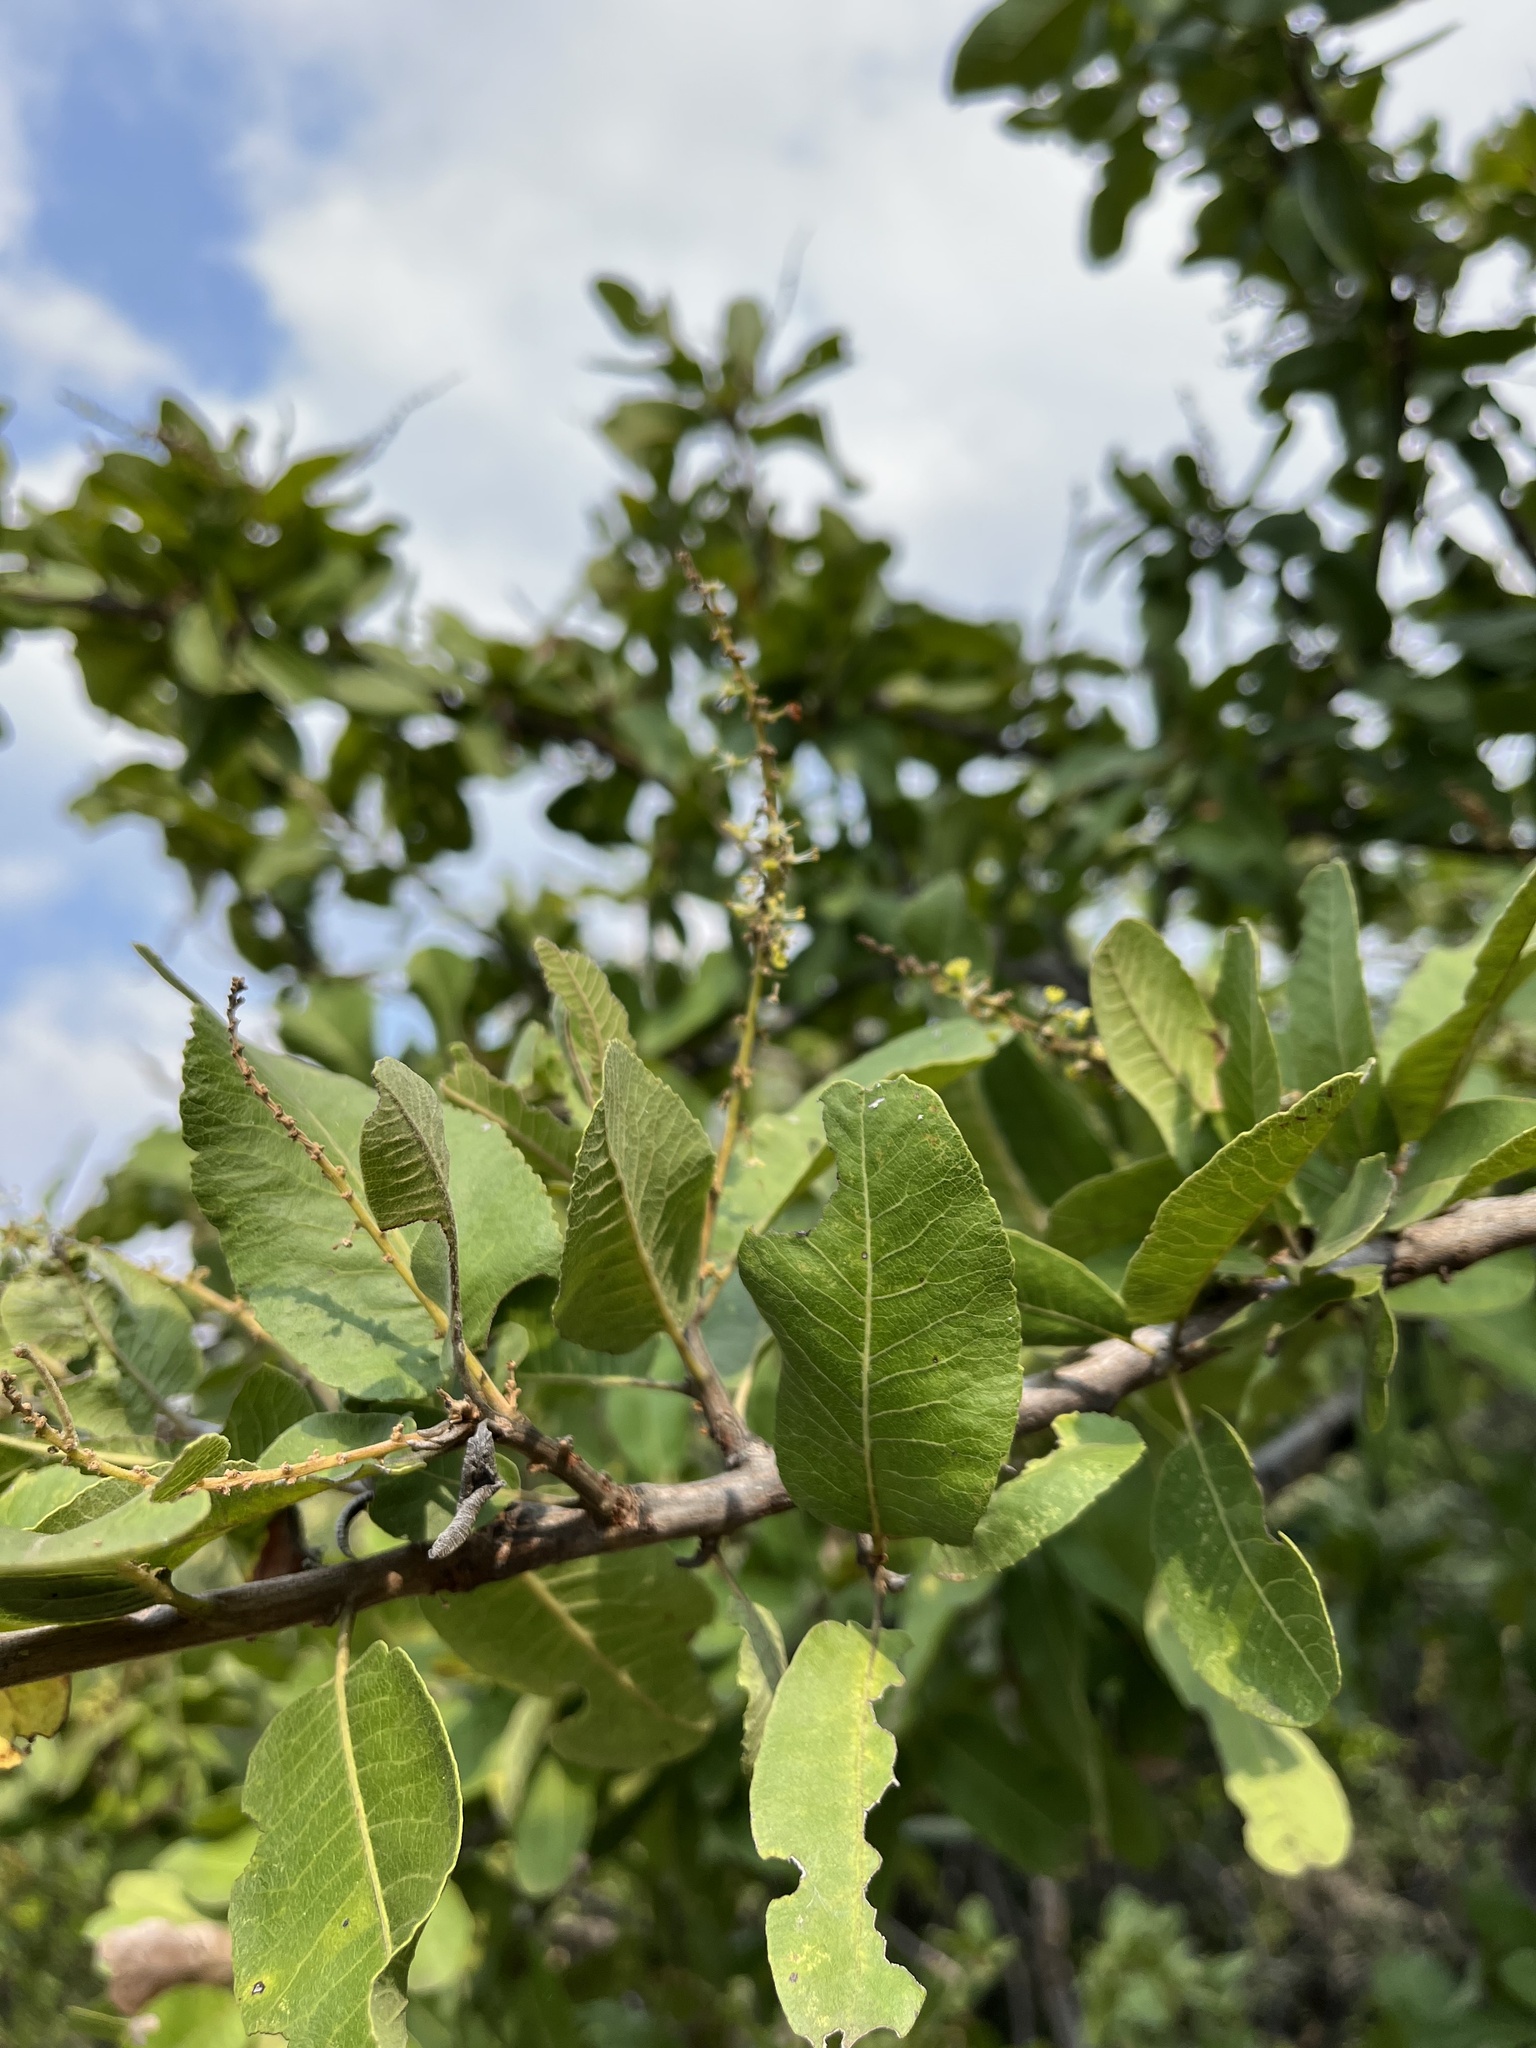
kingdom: Plantae
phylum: Tracheophyta
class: Magnoliopsida
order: Sapindales
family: Sapindaceae
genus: Pappea
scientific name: Pappea capensis
